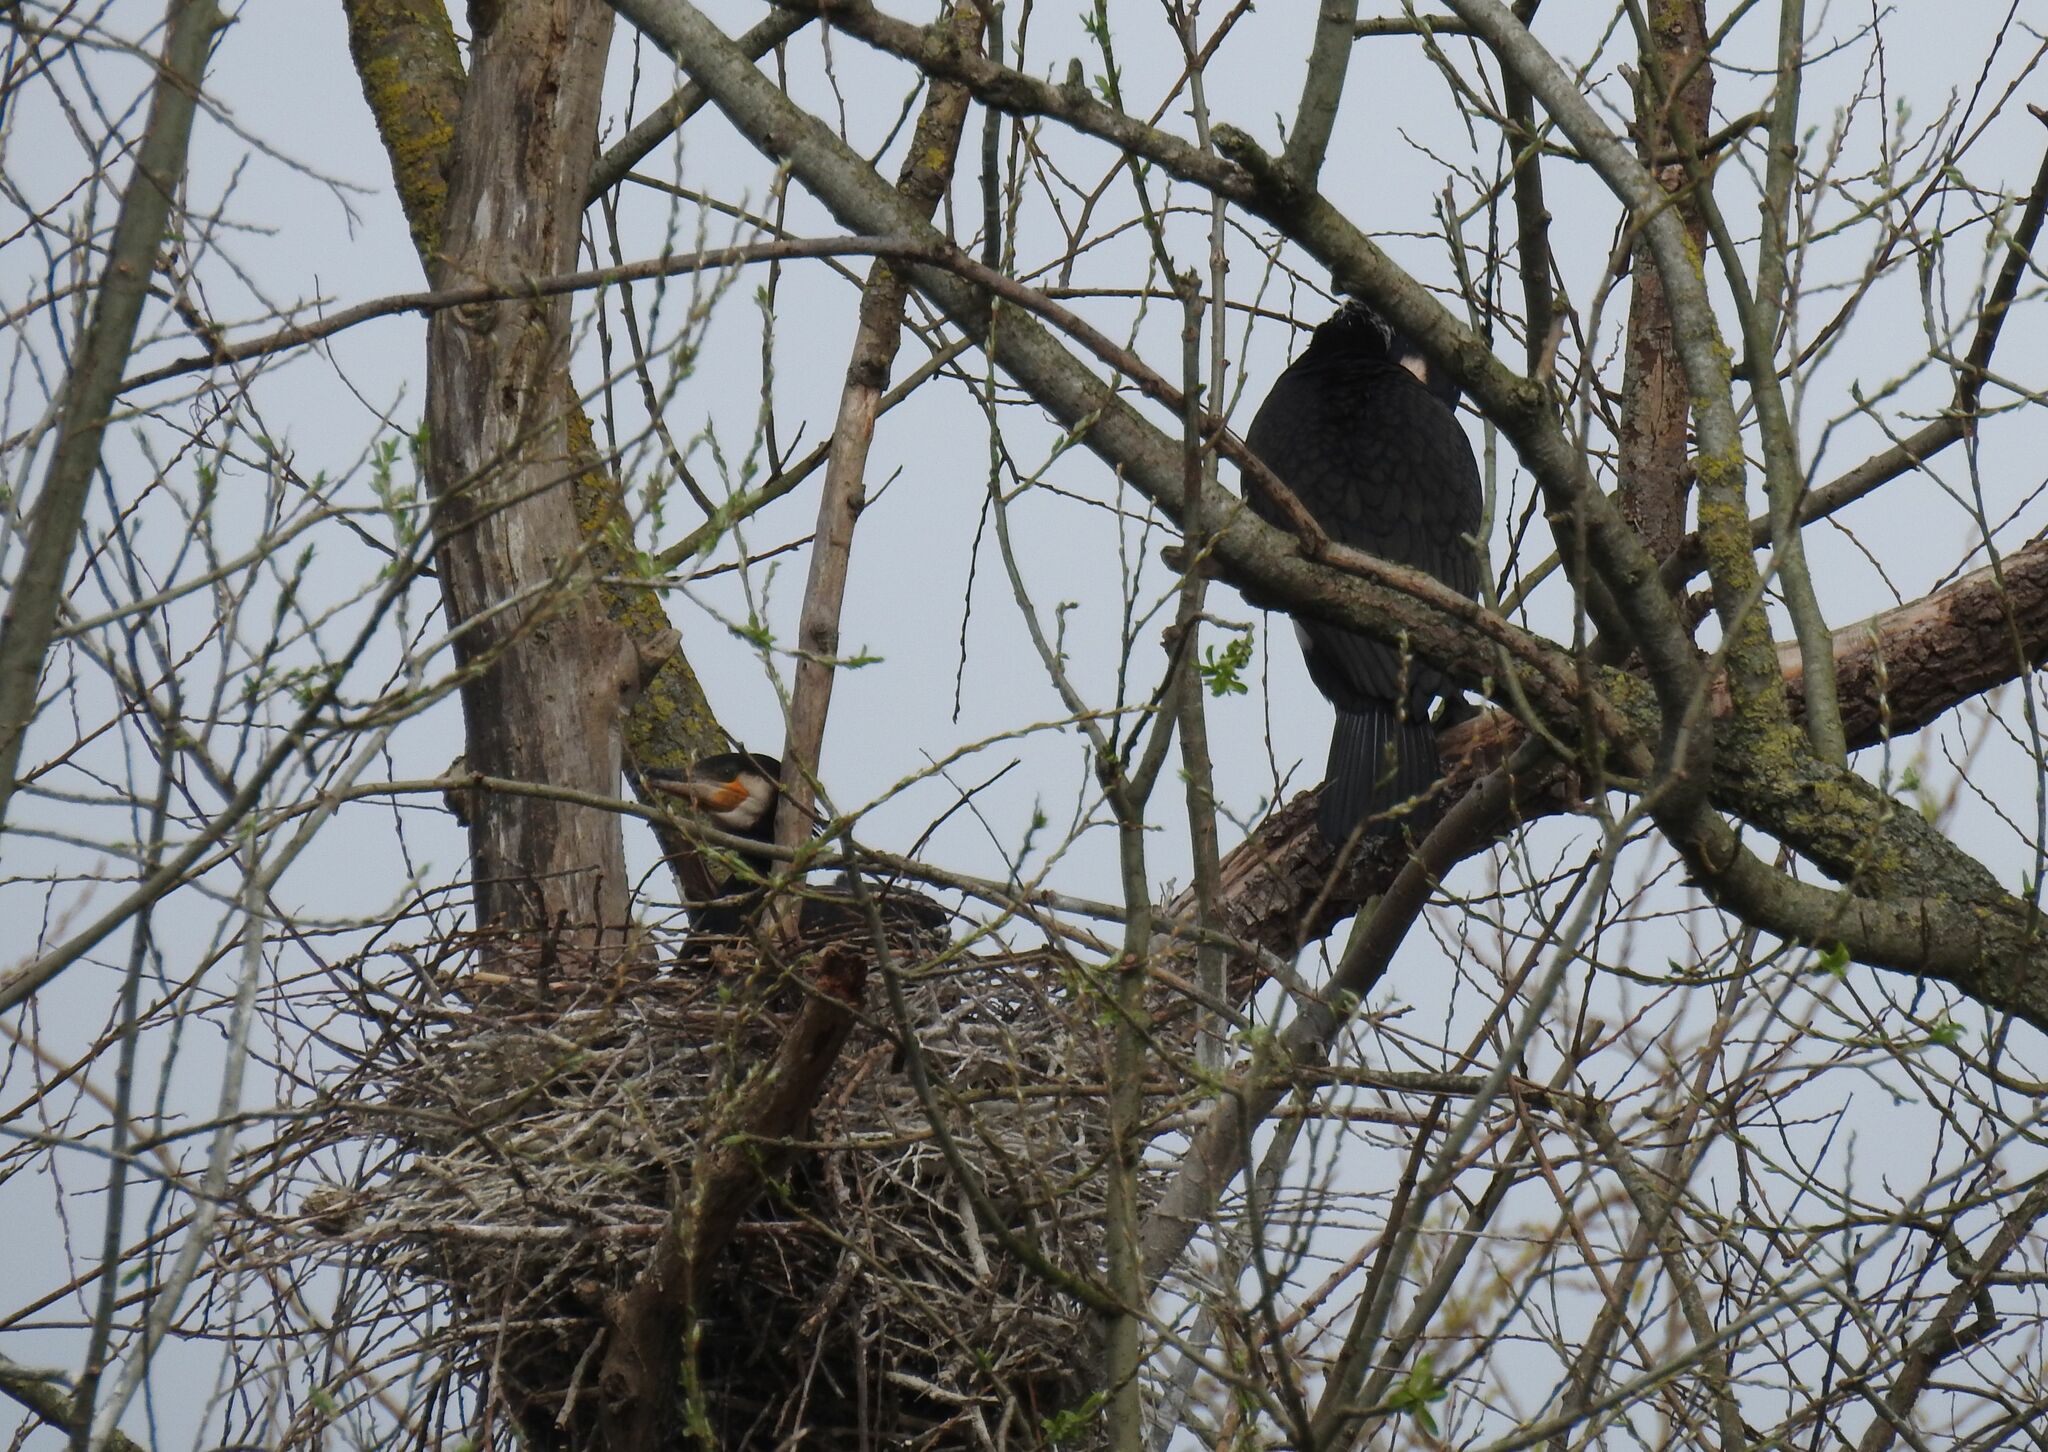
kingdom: Animalia
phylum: Chordata
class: Aves
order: Suliformes
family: Phalacrocoracidae
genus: Phalacrocorax
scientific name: Phalacrocorax carbo
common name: Great cormorant
